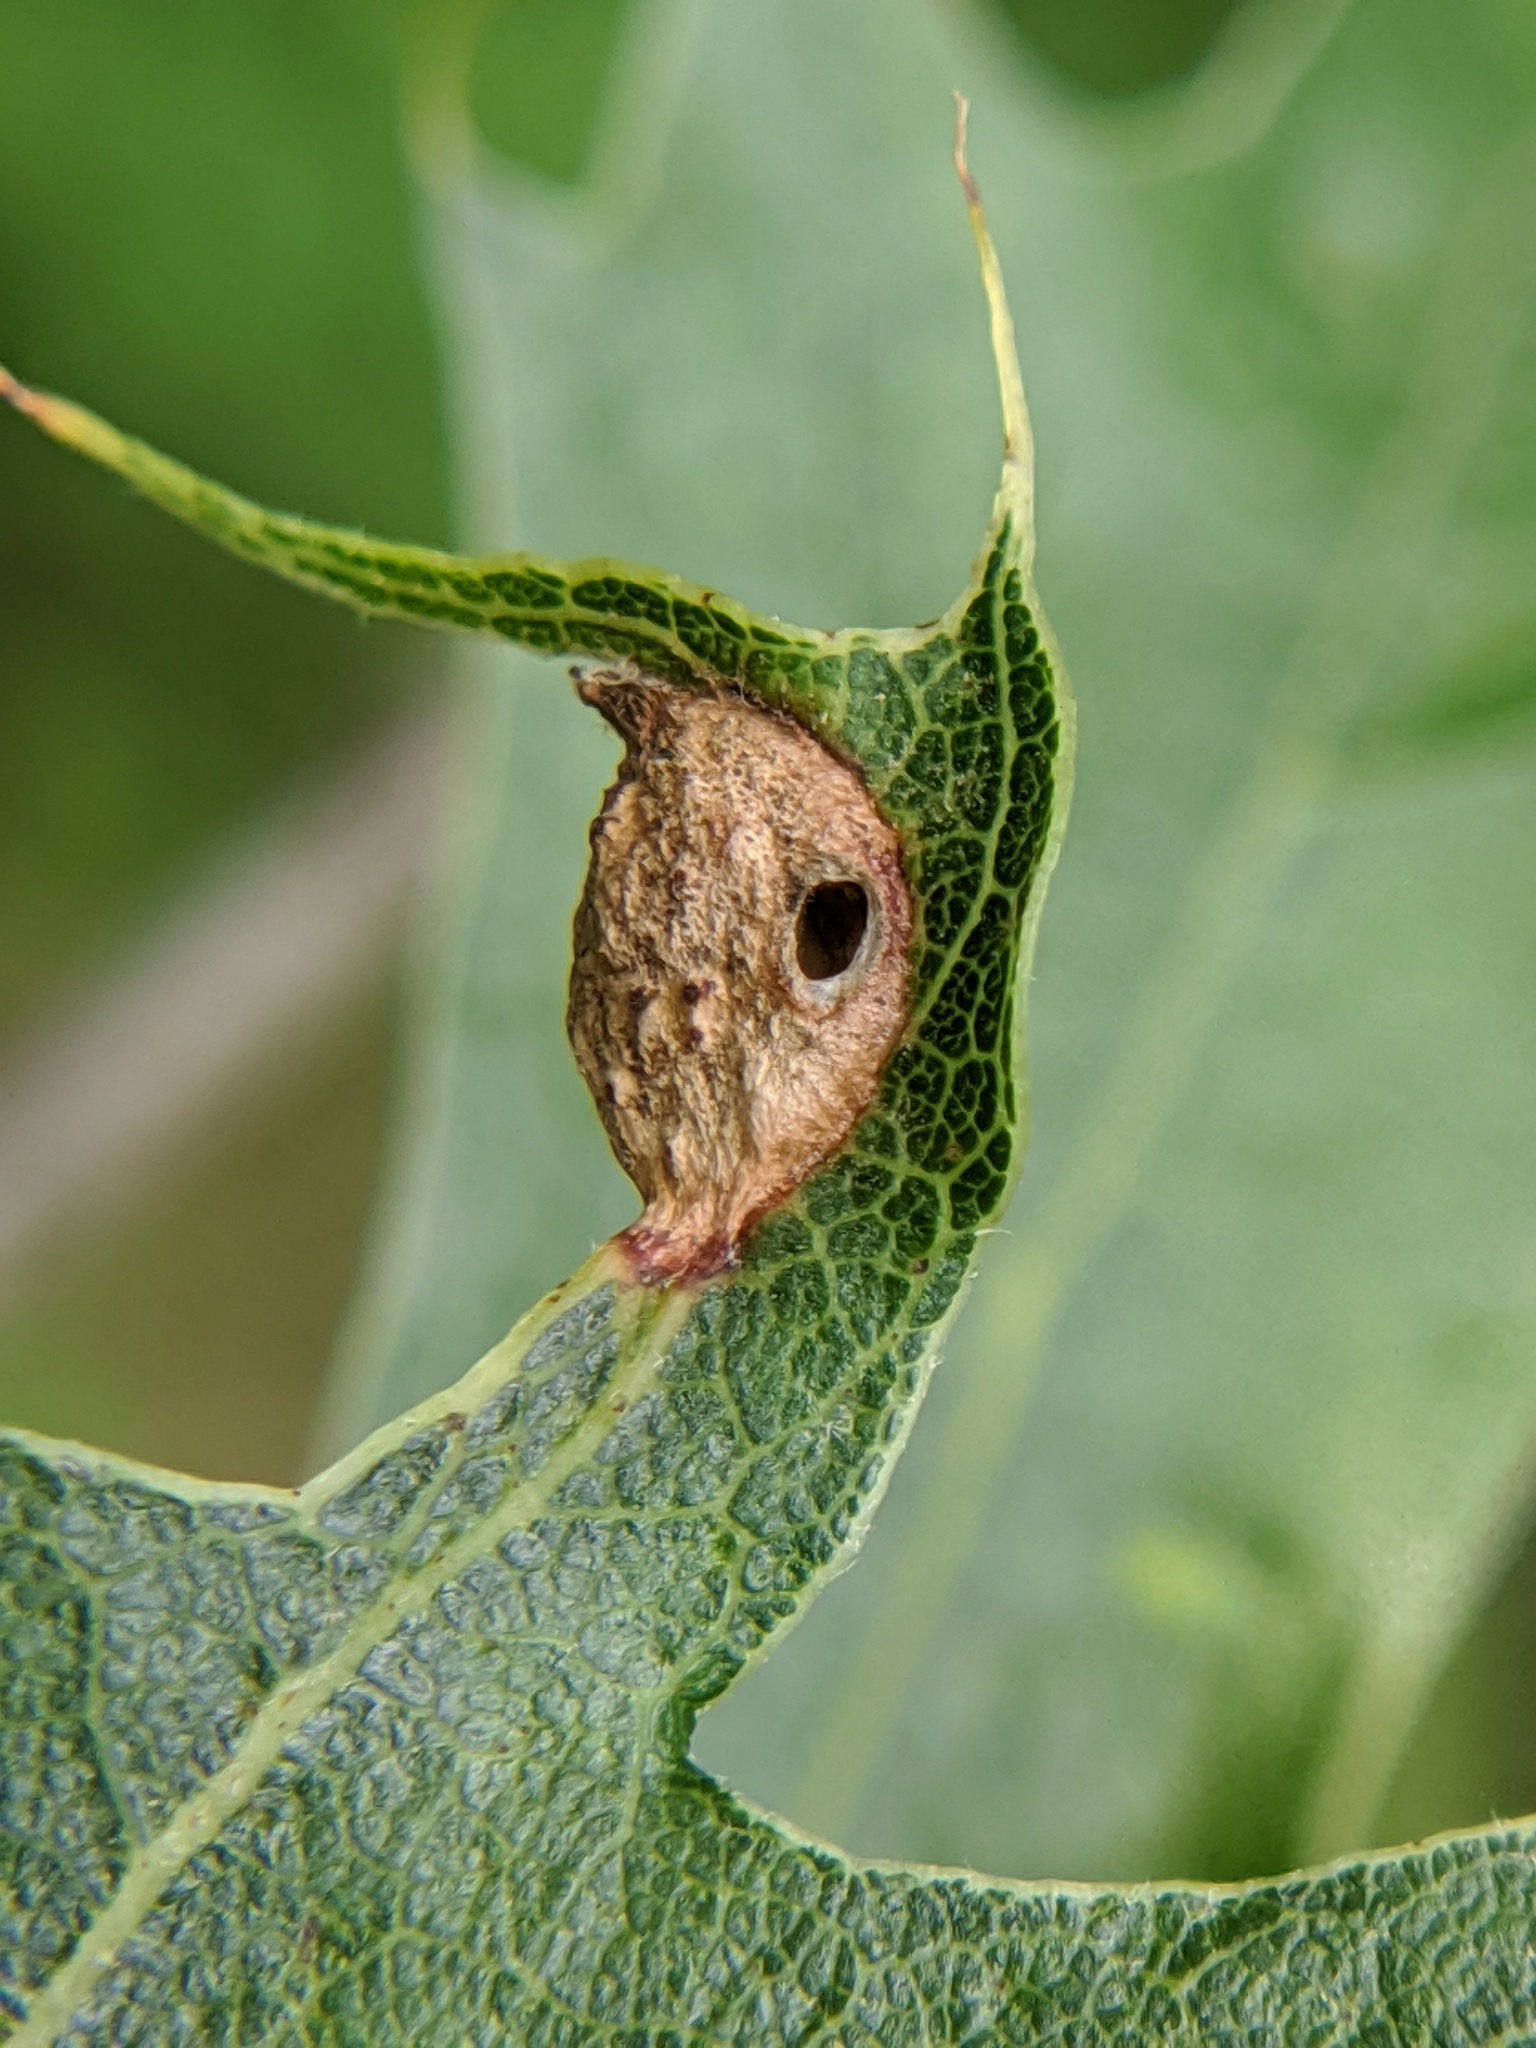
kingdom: Animalia
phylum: Arthropoda
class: Insecta
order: Hymenoptera
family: Cynipidae
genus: Dryocosmus
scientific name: Dryocosmus
